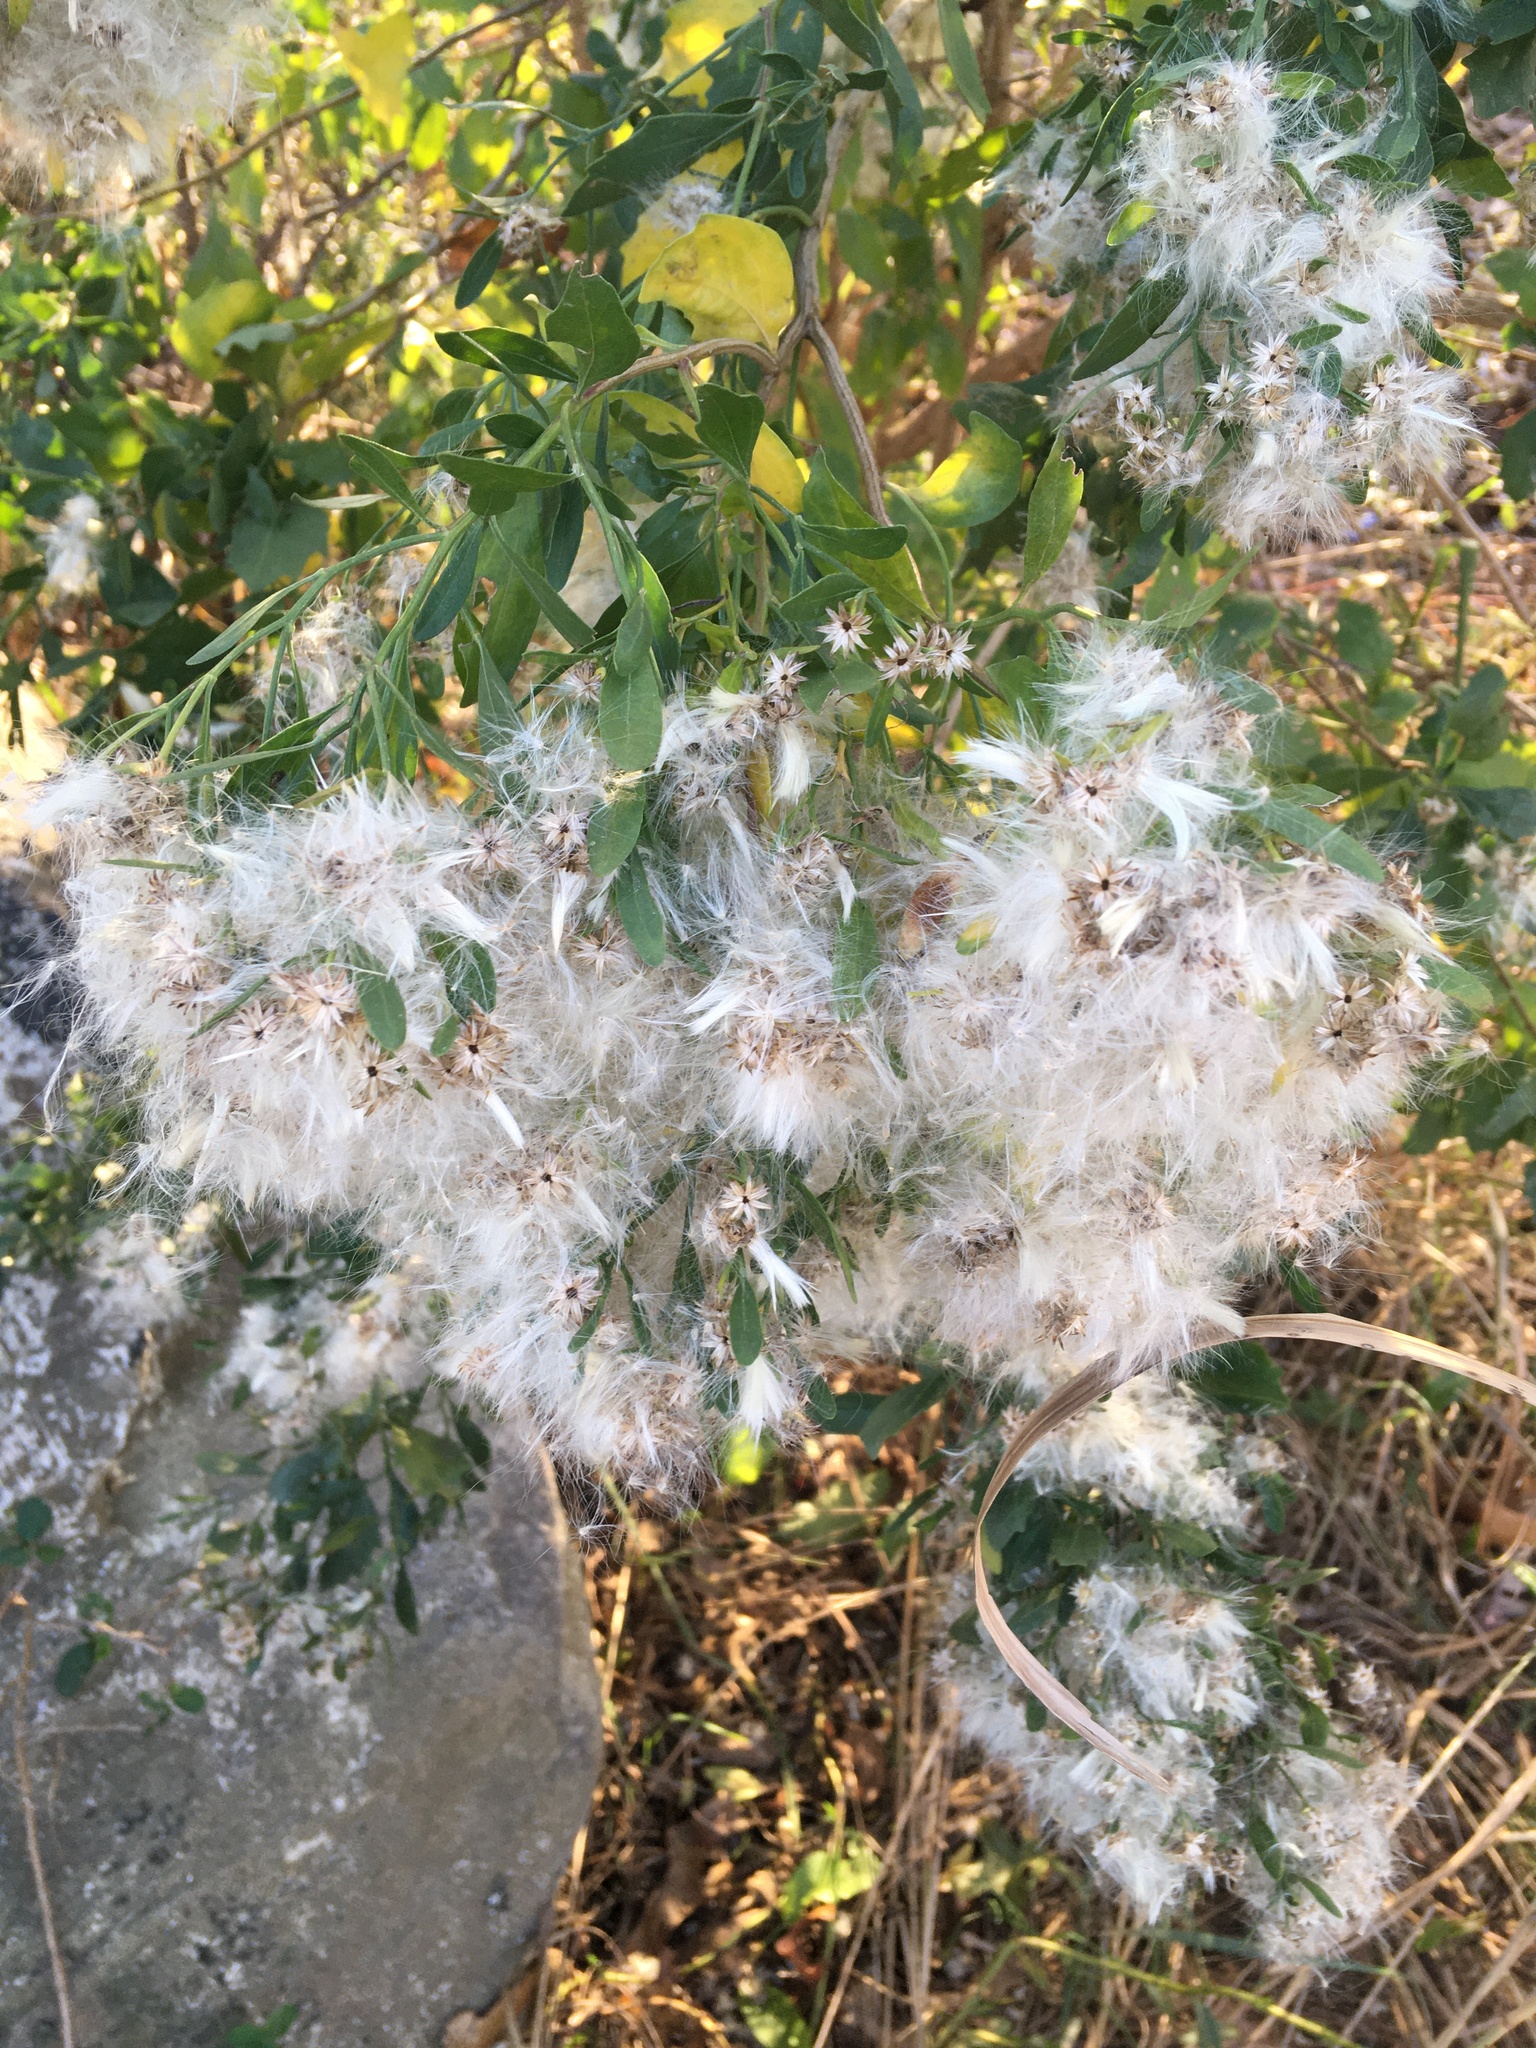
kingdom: Plantae
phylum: Tracheophyta
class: Magnoliopsida
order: Asterales
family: Asteraceae
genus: Baccharis
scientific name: Baccharis halimifolia
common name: Eastern baccharis
